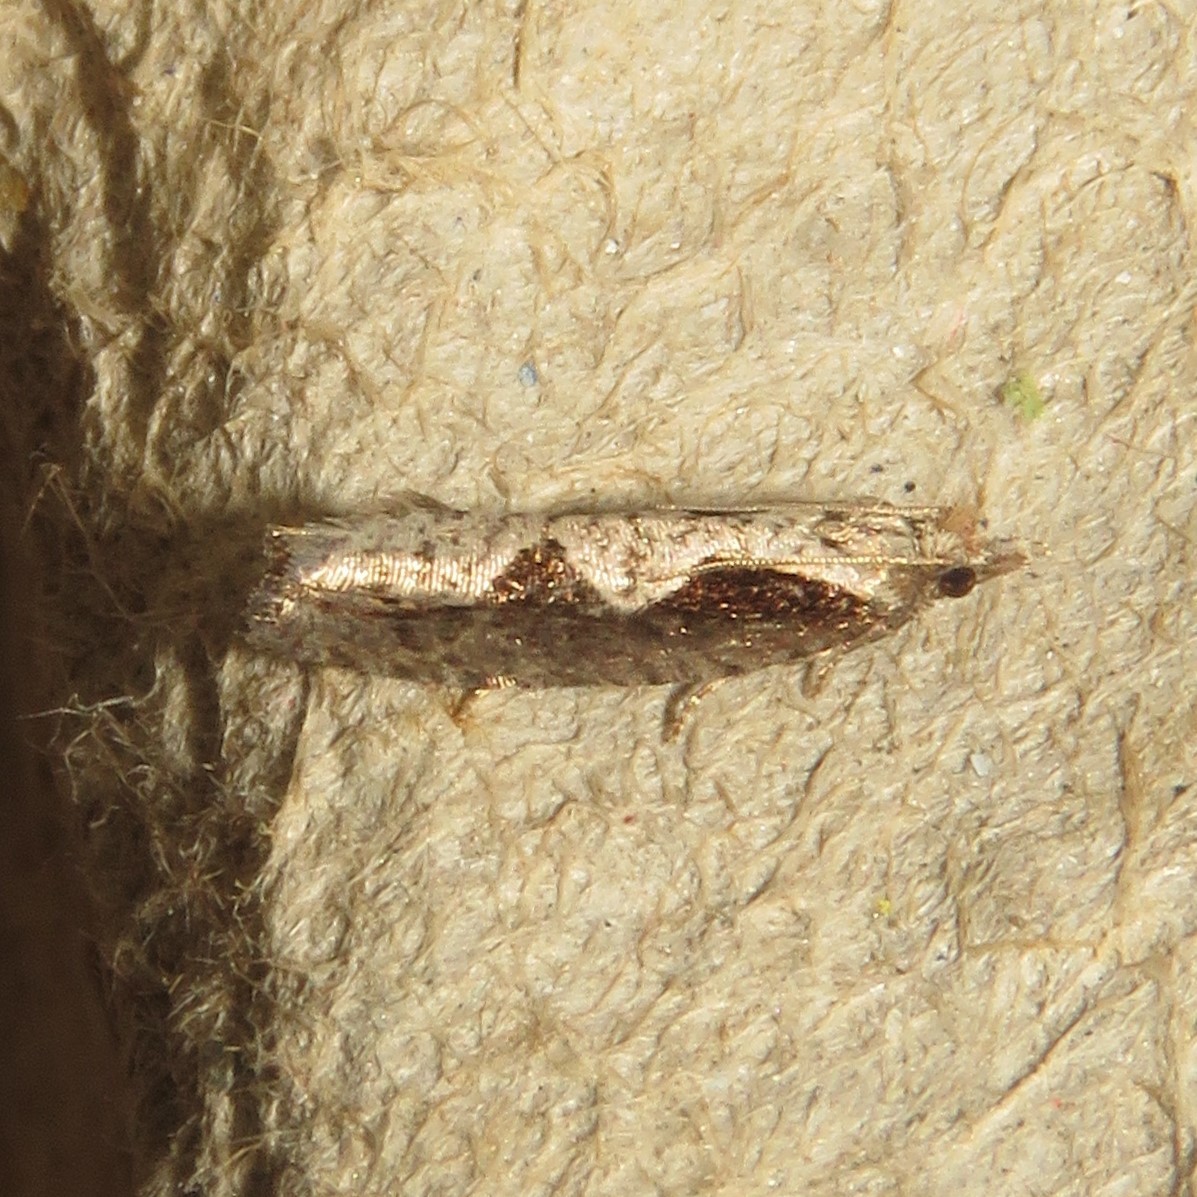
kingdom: Animalia
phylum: Arthropoda
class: Insecta
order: Lepidoptera
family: Tortricidae
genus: Epinotia
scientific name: Epinotia lindana
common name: Diamondback epinotia moth
